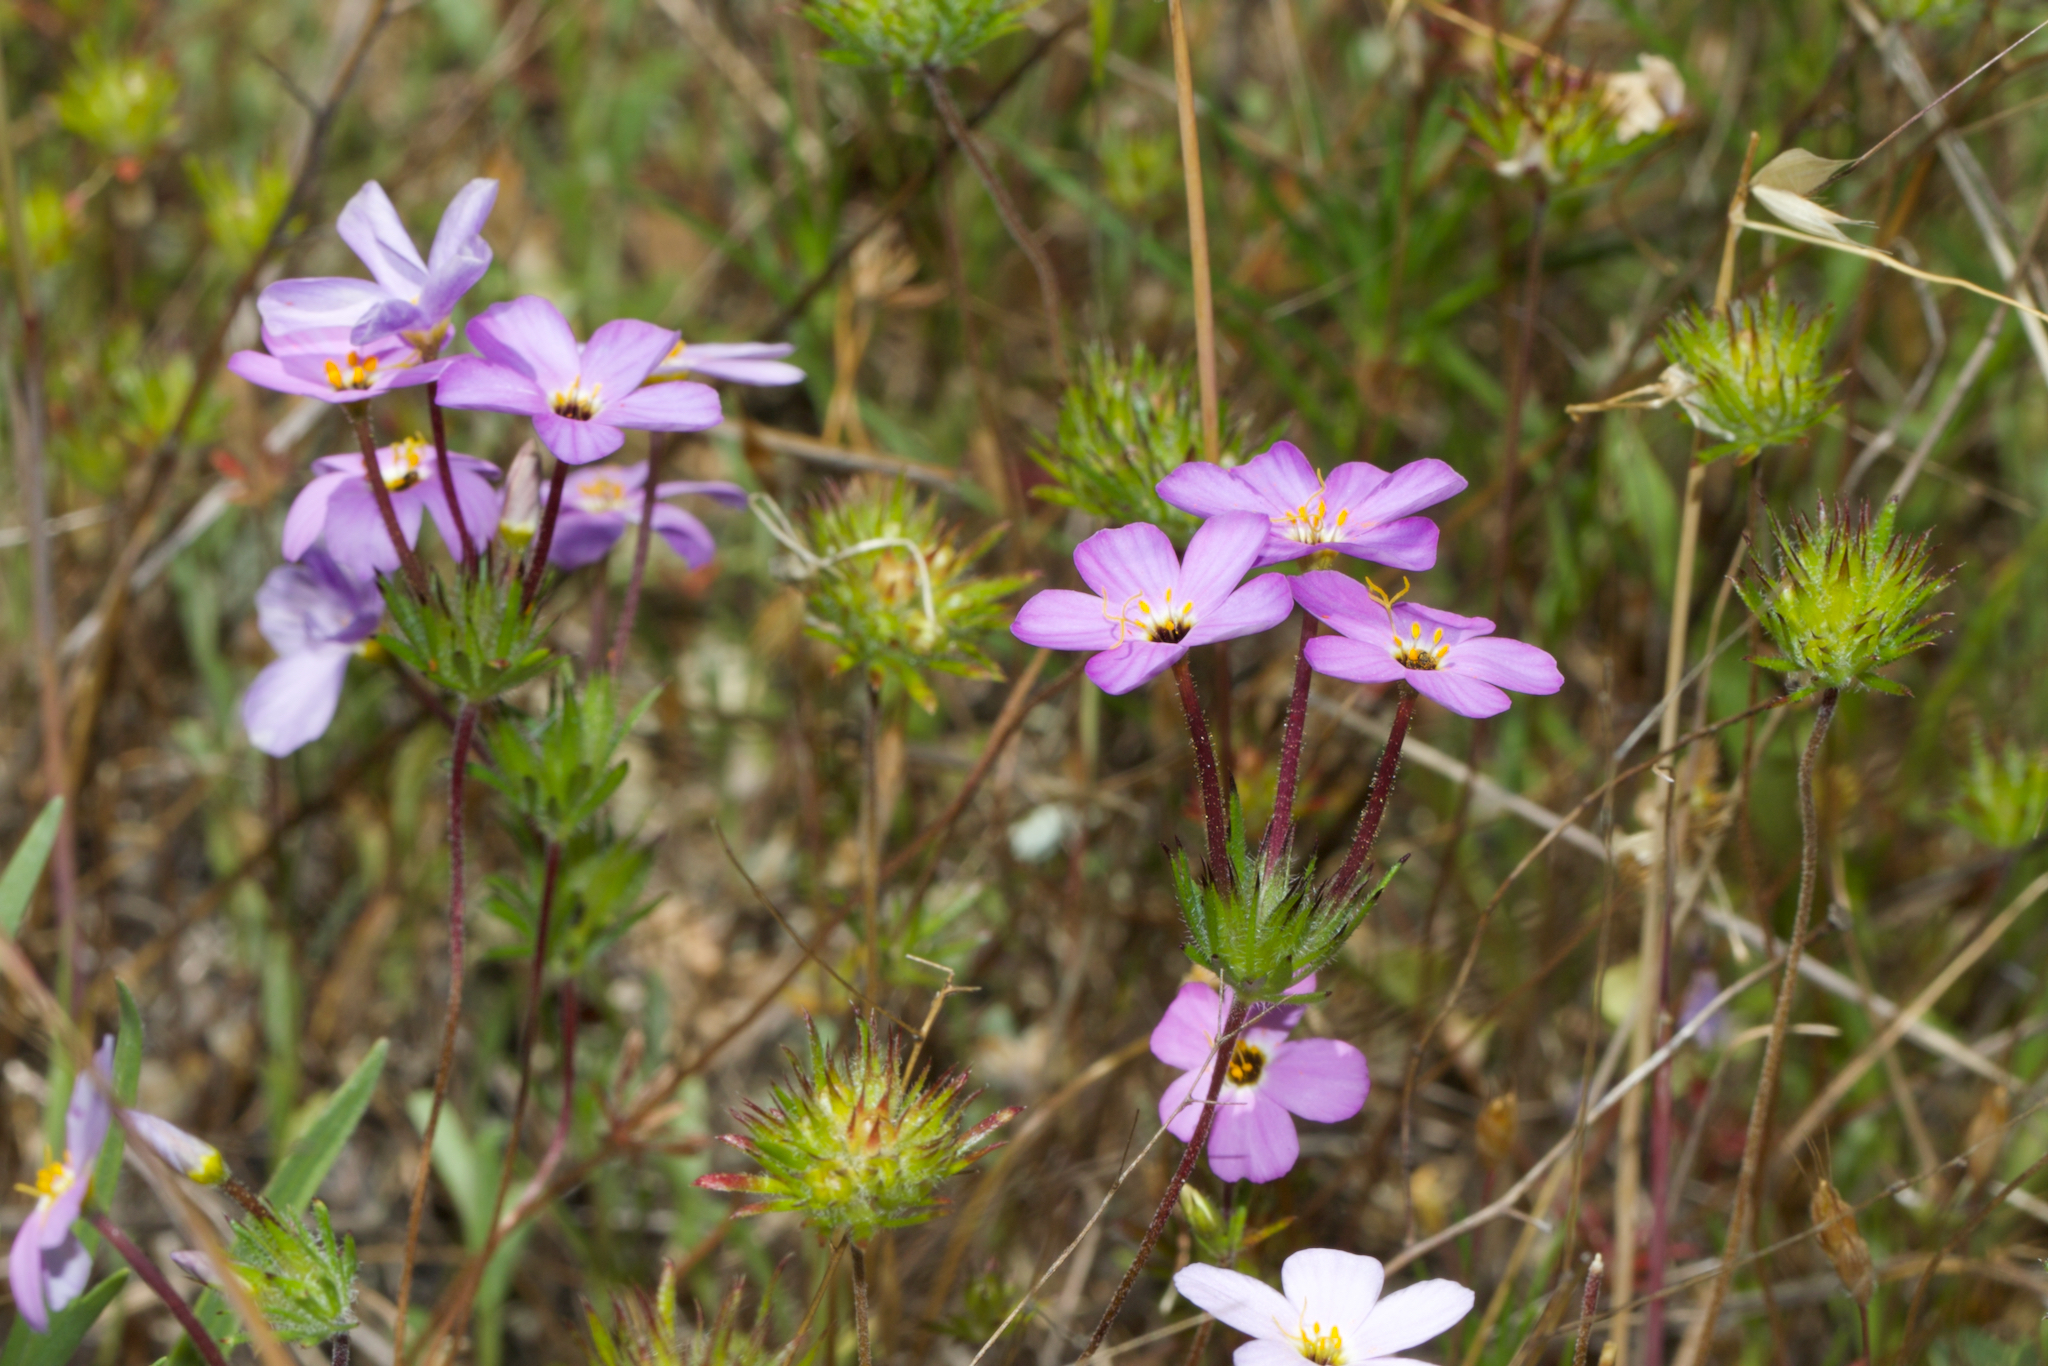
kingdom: Plantae
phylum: Tracheophyta
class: Magnoliopsida
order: Ericales
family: Polemoniaceae
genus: Leptosiphon
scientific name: Leptosiphon androsaceus
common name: False babystars
